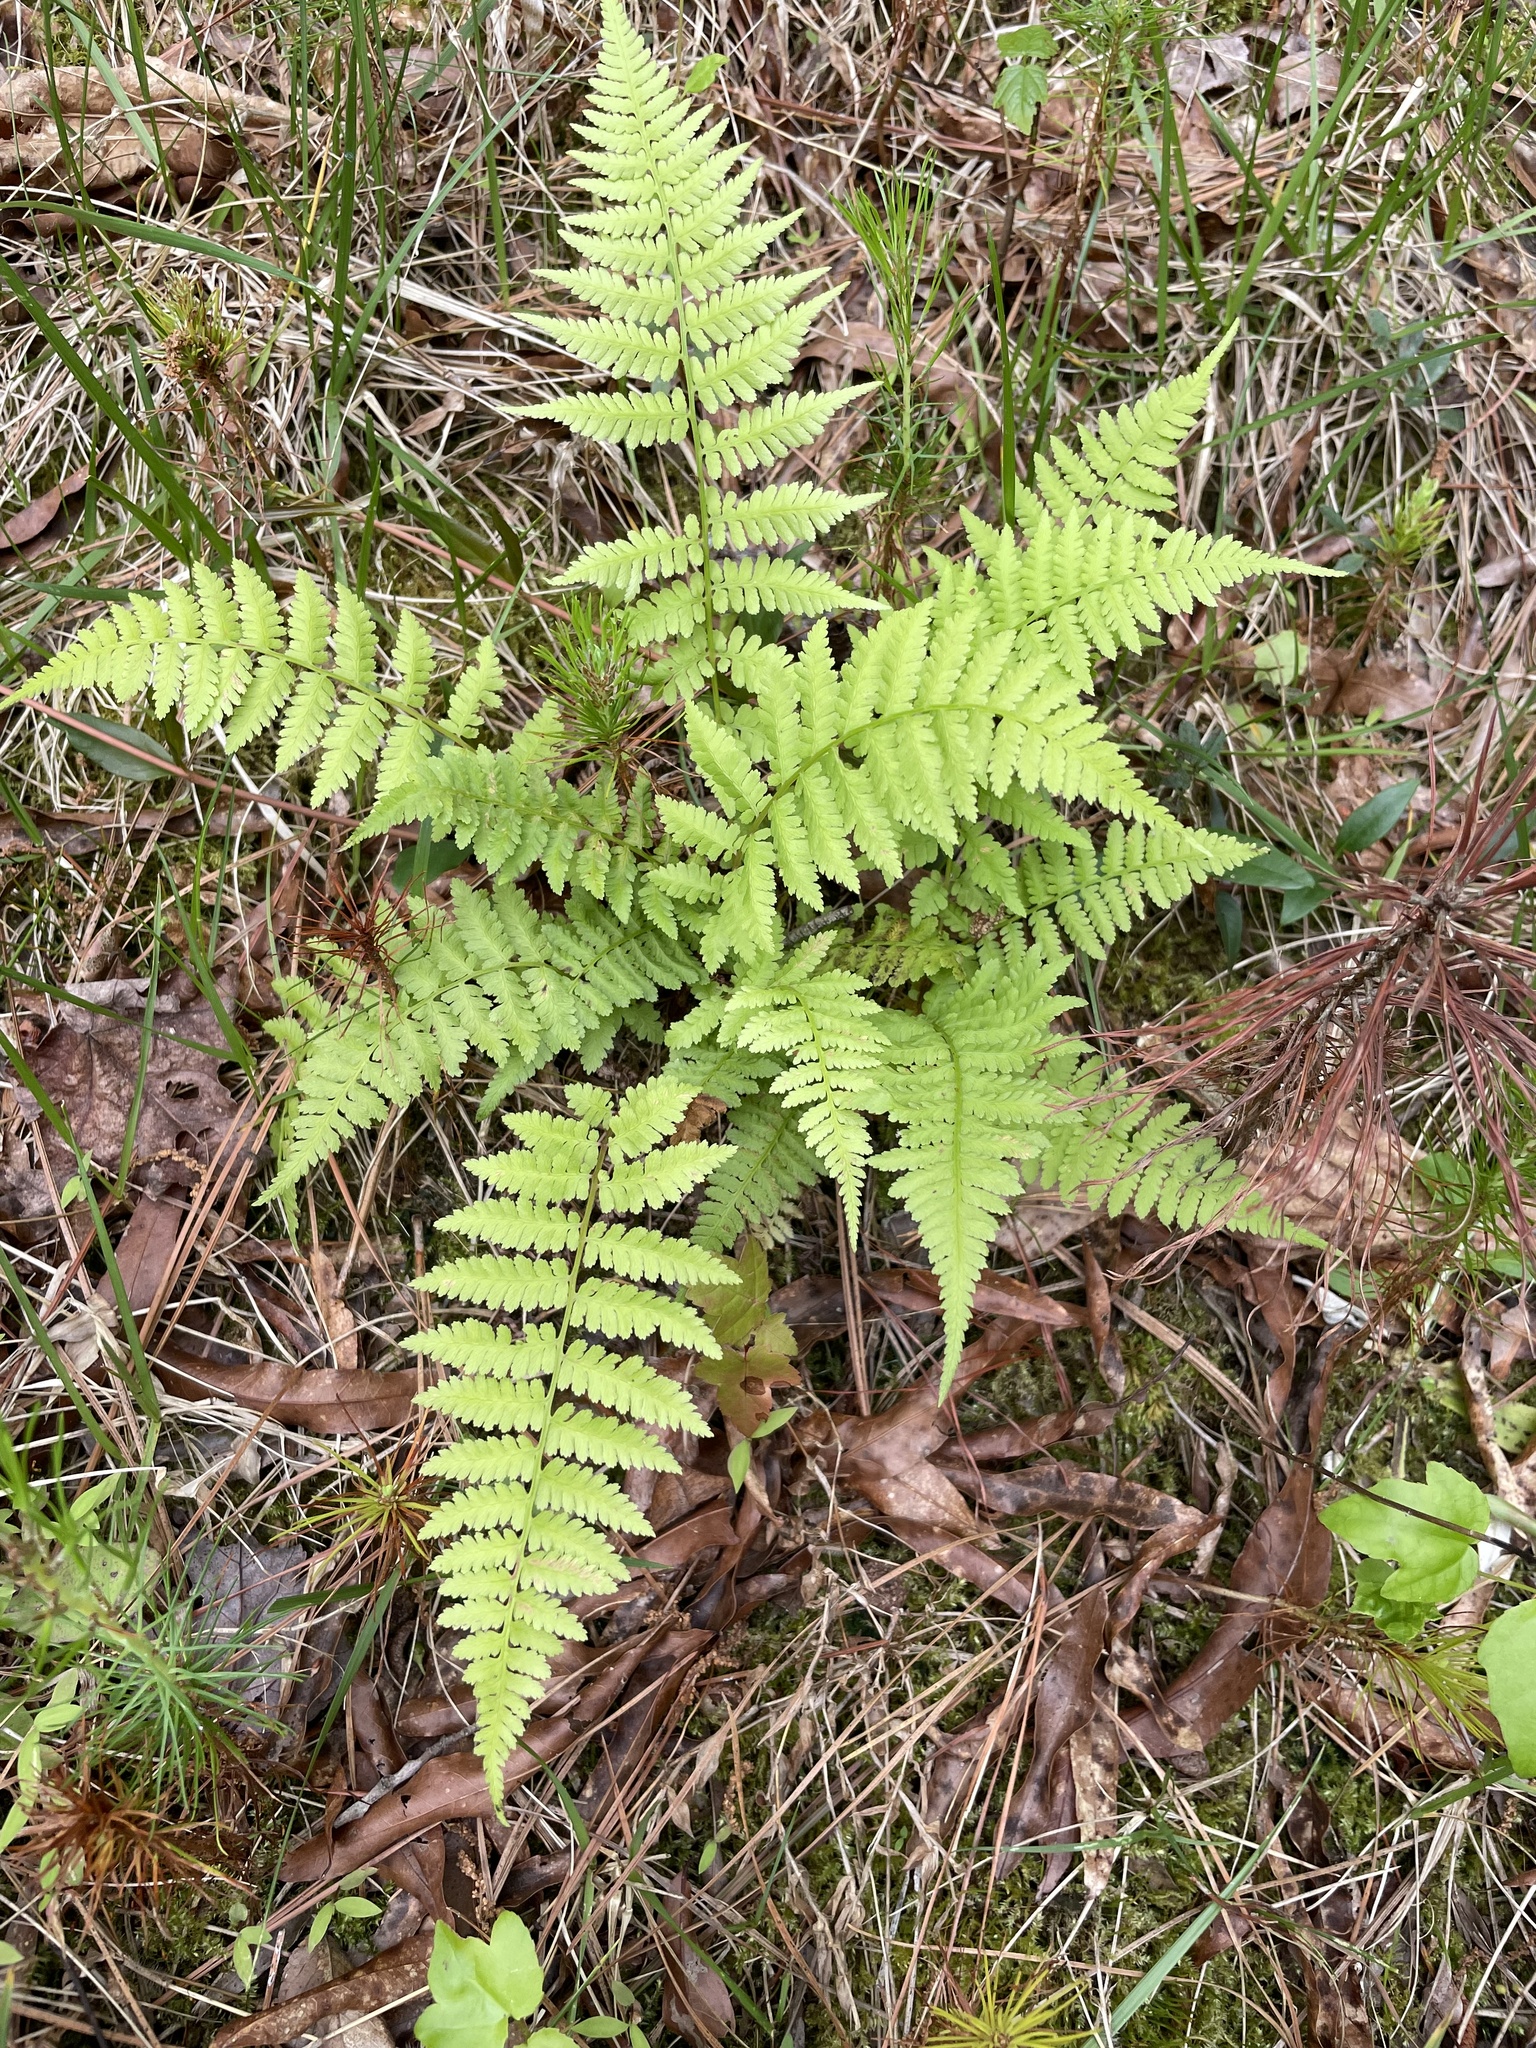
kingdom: Plantae
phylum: Tracheophyta
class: Polypodiopsida
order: Polypodiales
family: Athyriaceae
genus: Athyrium
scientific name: Athyrium asplenioides
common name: Southern lady fern
